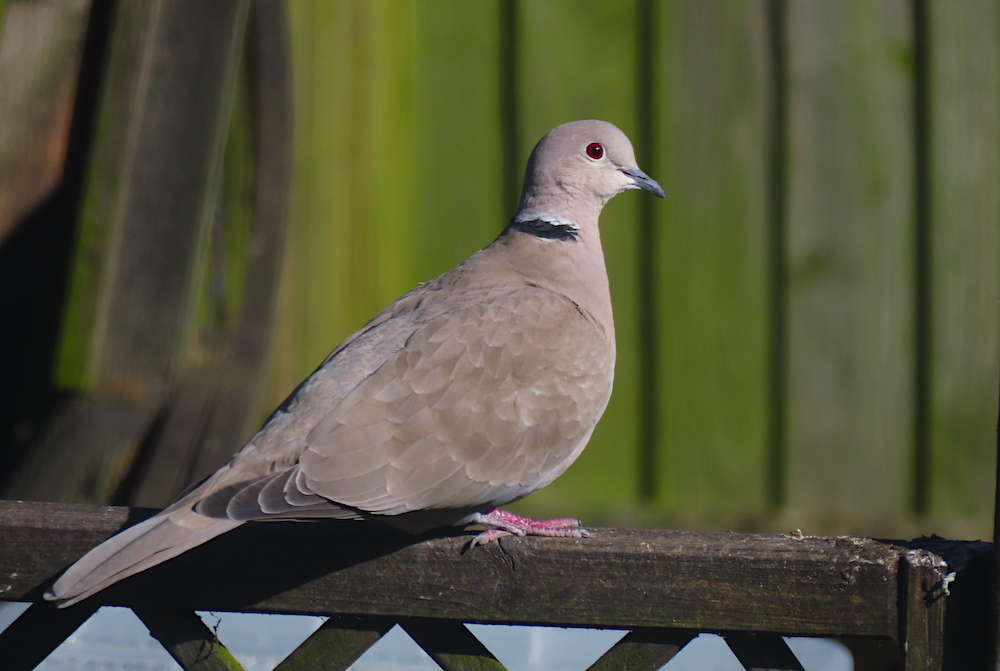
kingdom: Animalia
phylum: Chordata
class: Aves
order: Columbiformes
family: Columbidae
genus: Streptopelia
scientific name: Streptopelia decaocto
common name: Eurasian collared dove
